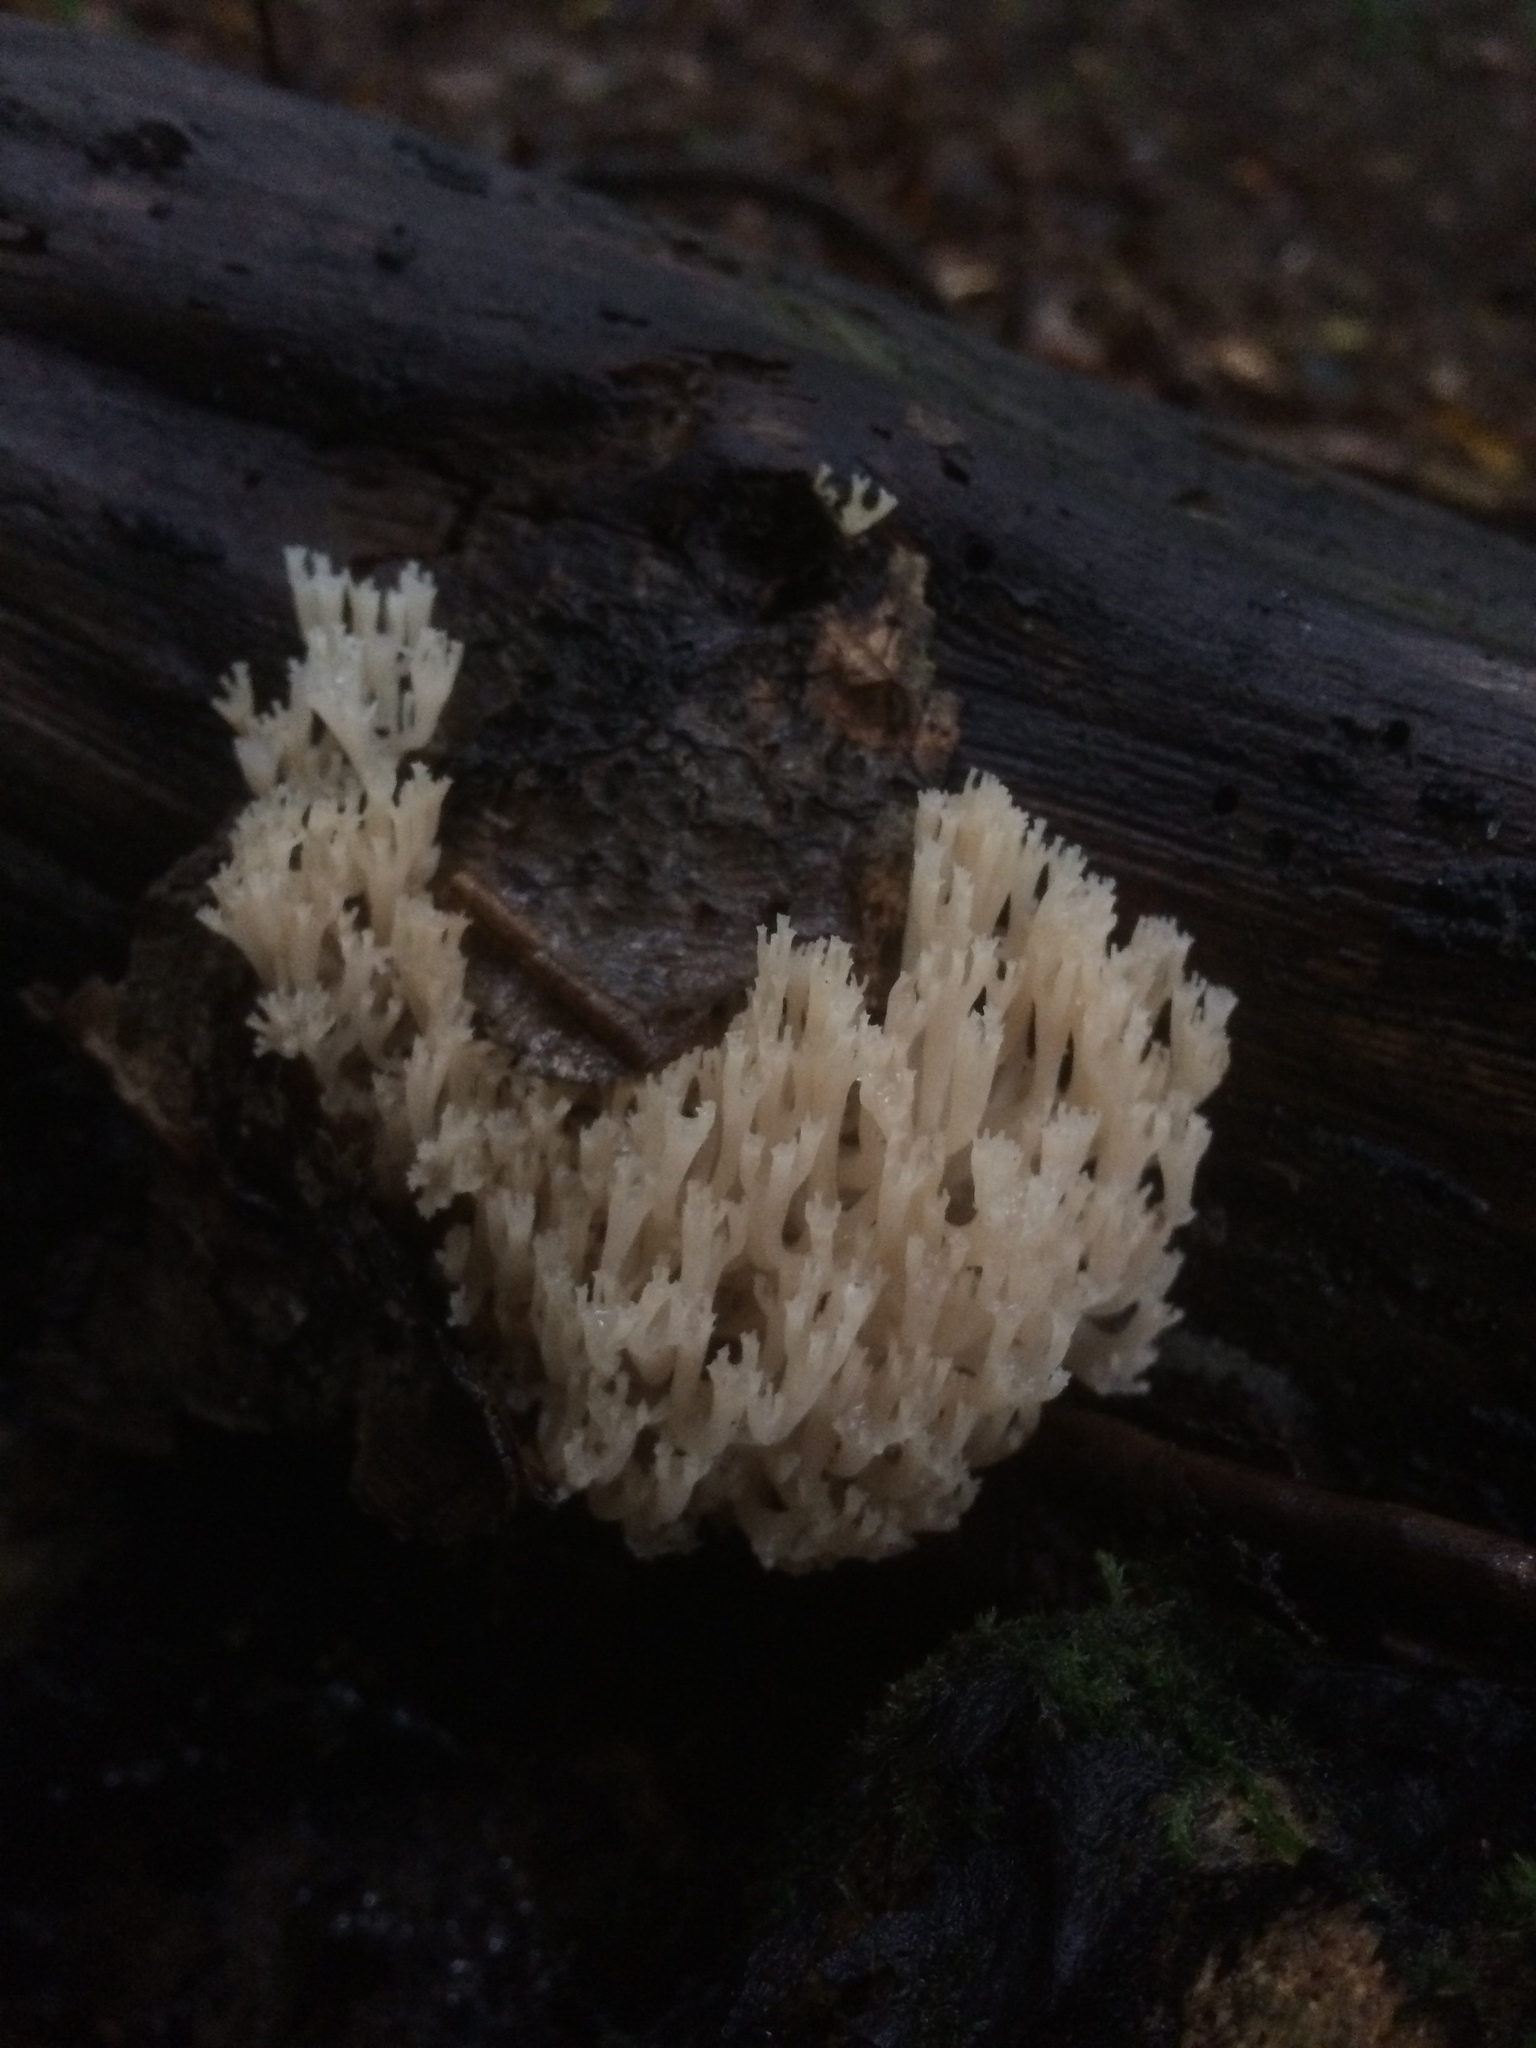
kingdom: Fungi
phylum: Basidiomycota
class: Agaricomycetes
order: Russulales
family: Auriscalpiaceae
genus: Artomyces
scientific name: Artomyces pyxidatus
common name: Crown-tipped coral fungus
